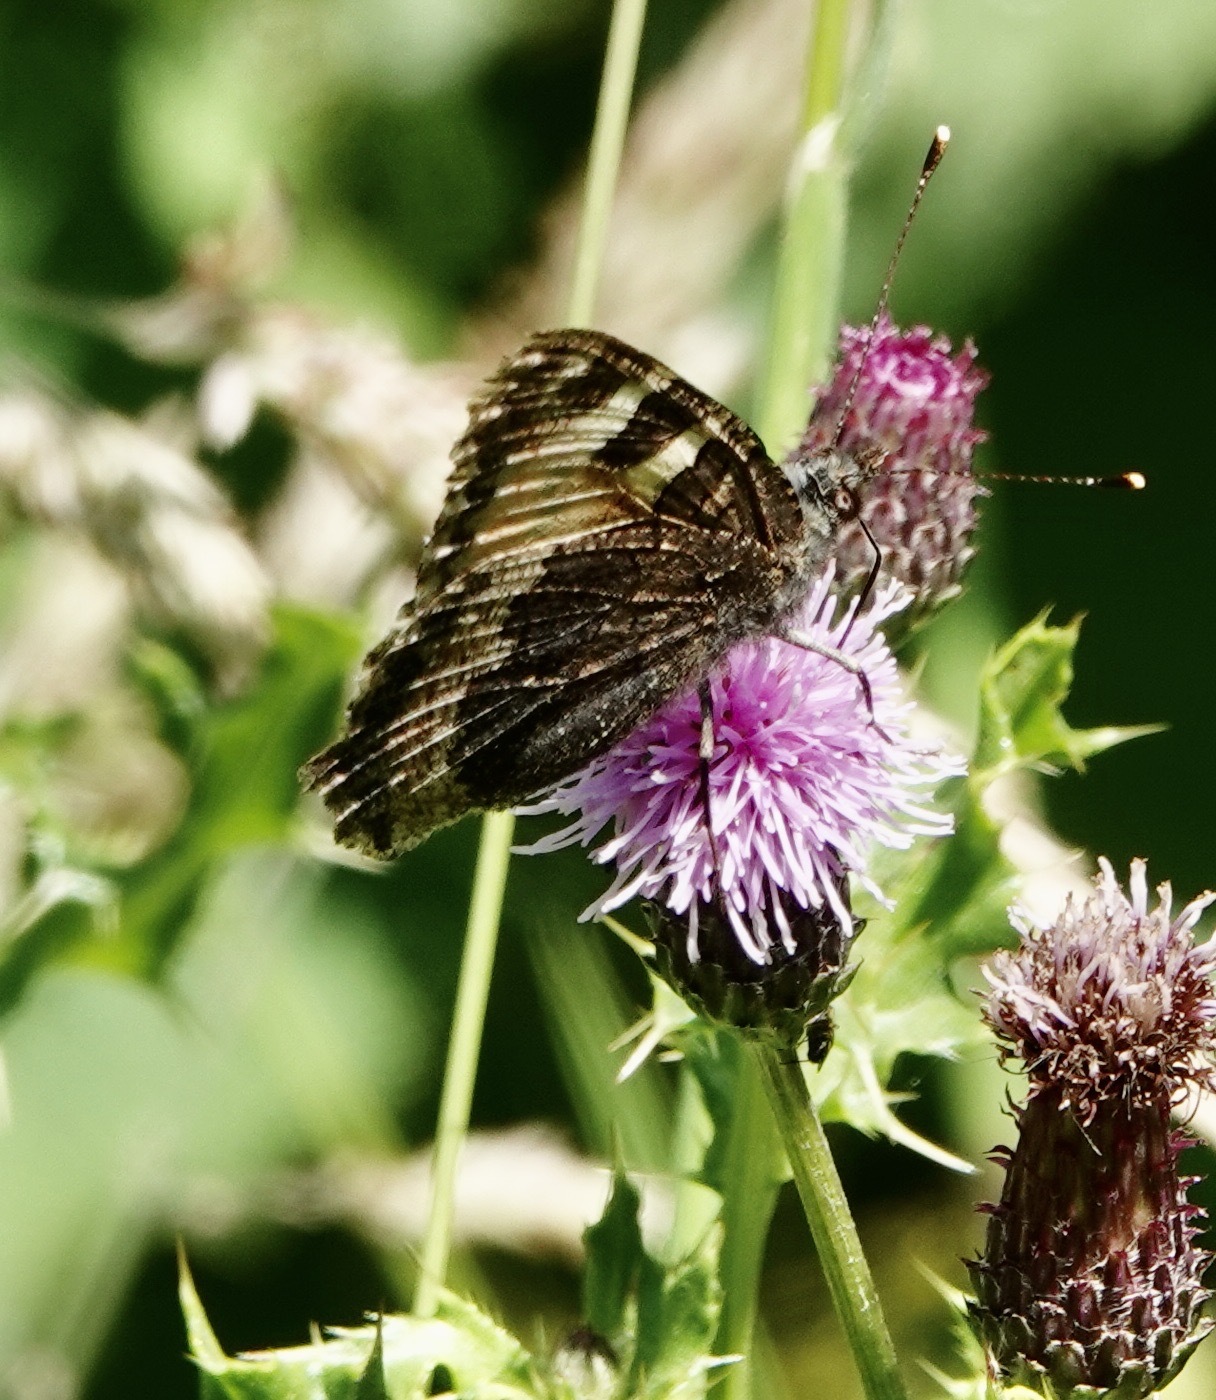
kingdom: Animalia
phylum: Arthropoda
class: Insecta
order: Lepidoptera
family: Nymphalidae
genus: Aglais
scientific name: Aglais urticae
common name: Small tortoiseshell
